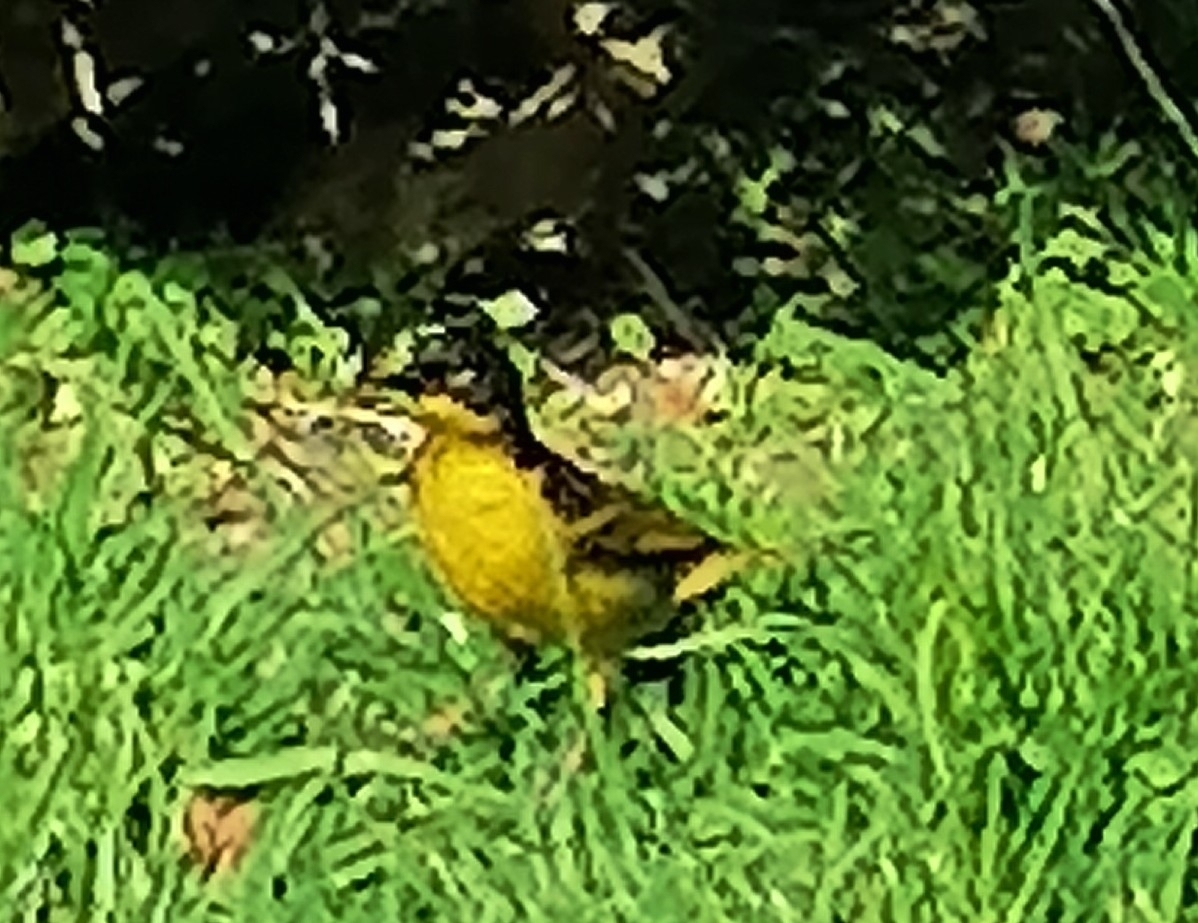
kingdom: Animalia
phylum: Chordata
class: Aves
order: Passeriformes
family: Ploceidae
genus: Ploceus
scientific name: Ploceus baglafecht
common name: Baglafecht weaver
